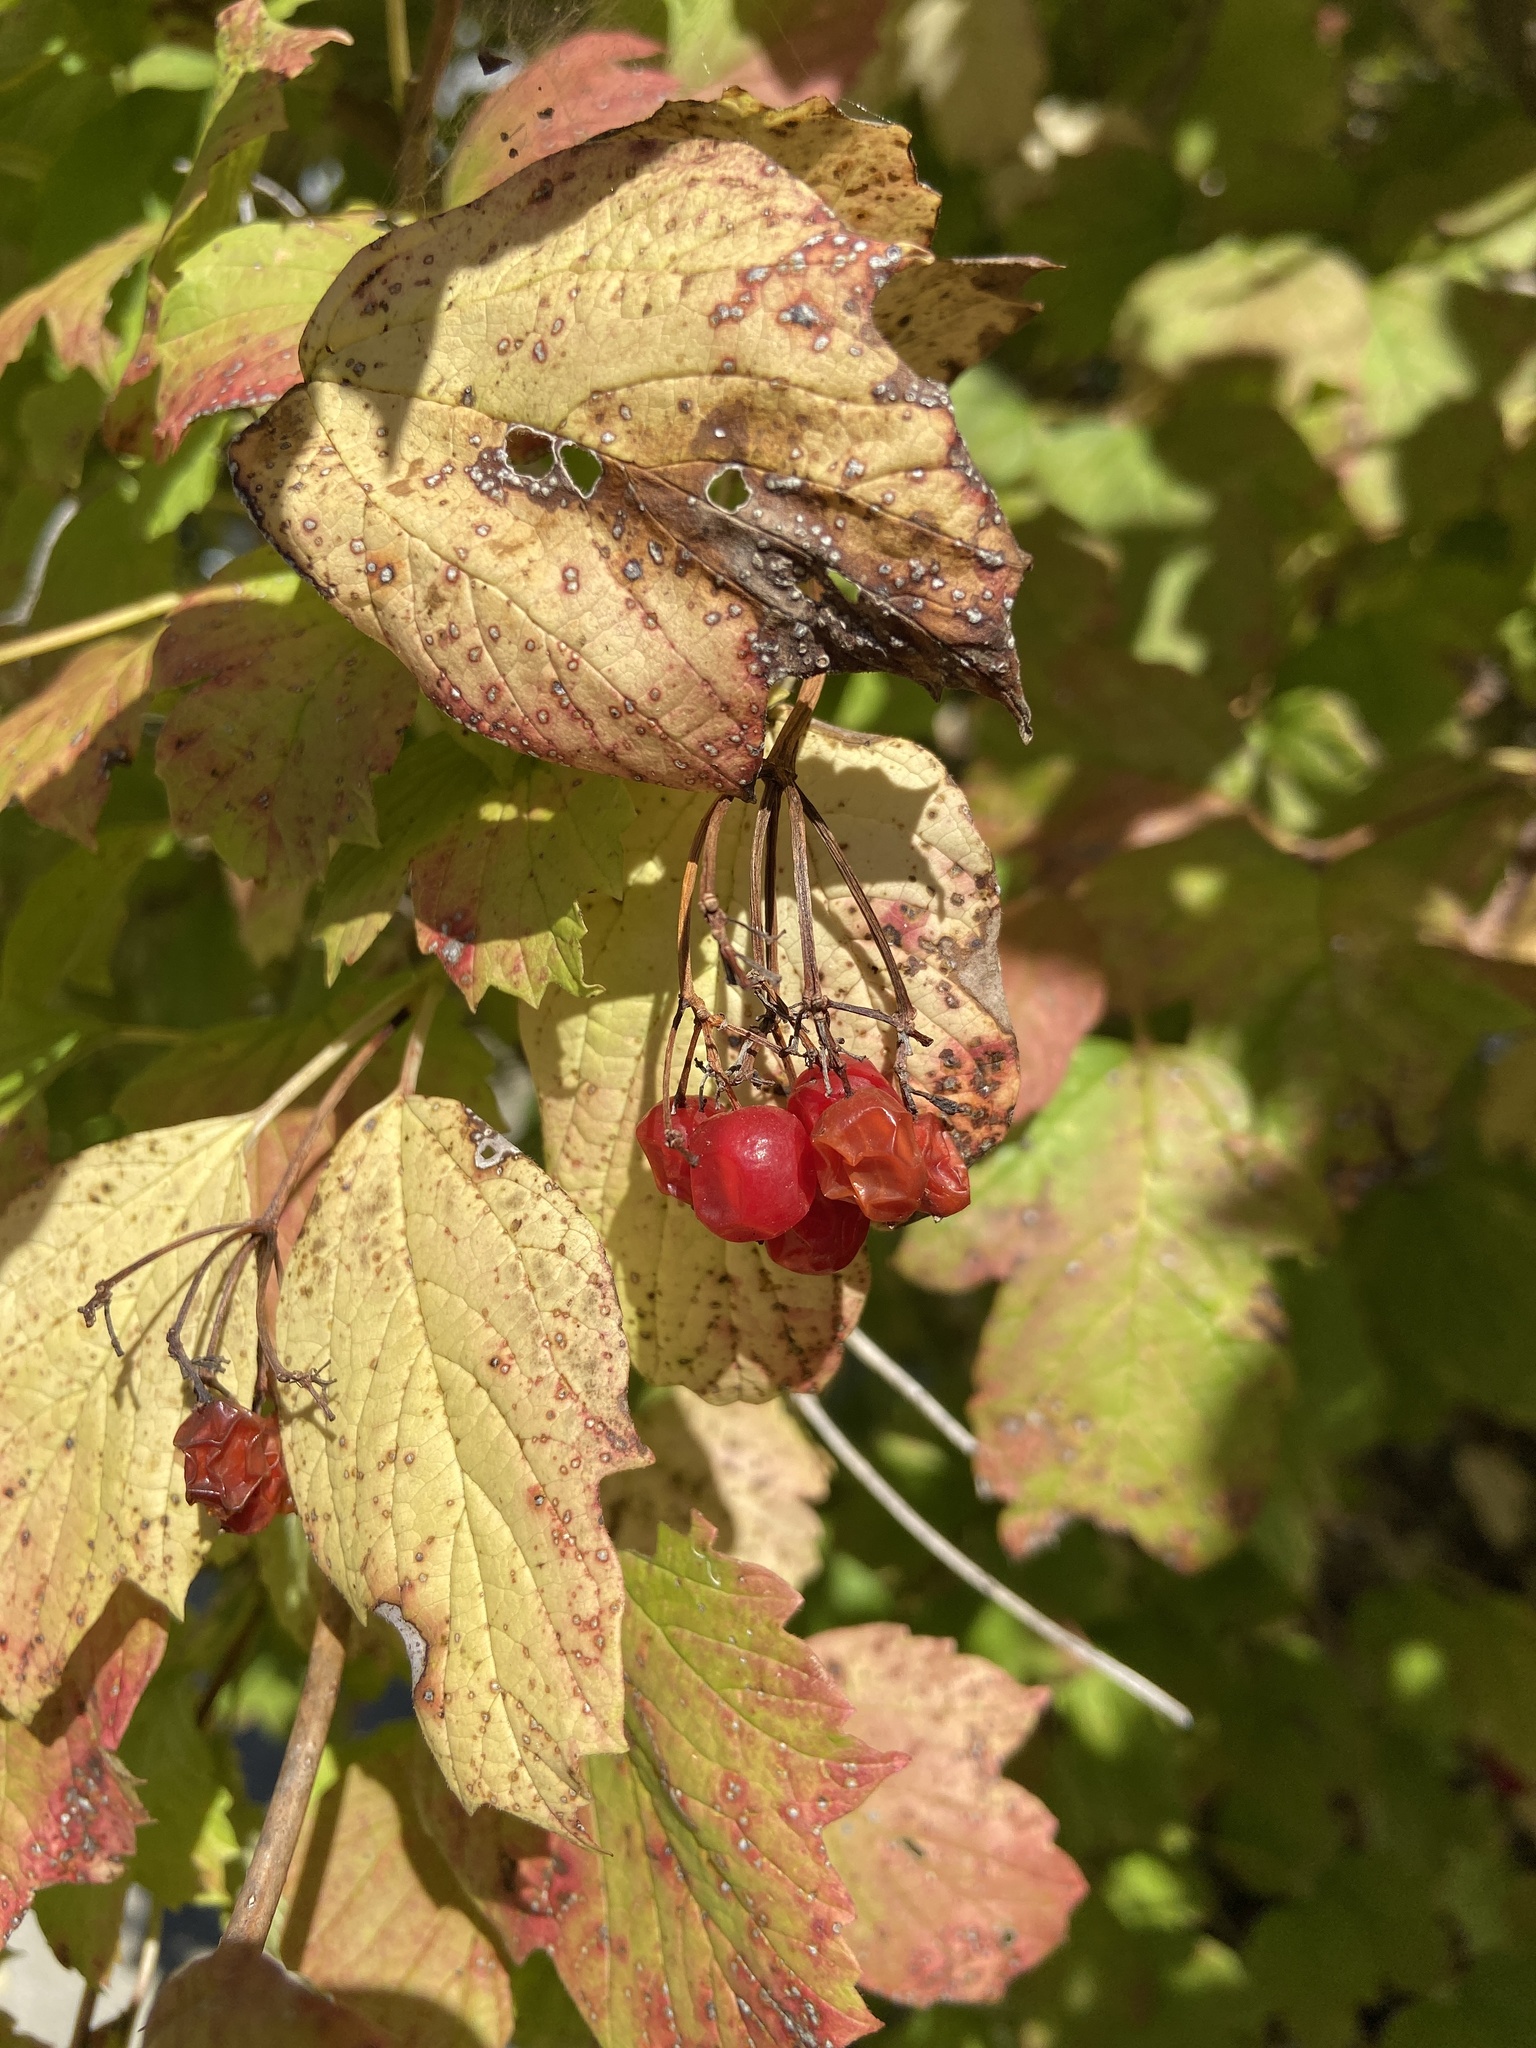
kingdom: Plantae
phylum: Tracheophyta
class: Magnoliopsida
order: Dipsacales
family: Viburnaceae
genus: Viburnum
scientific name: Viburnum opulus
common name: Guelder-rose
